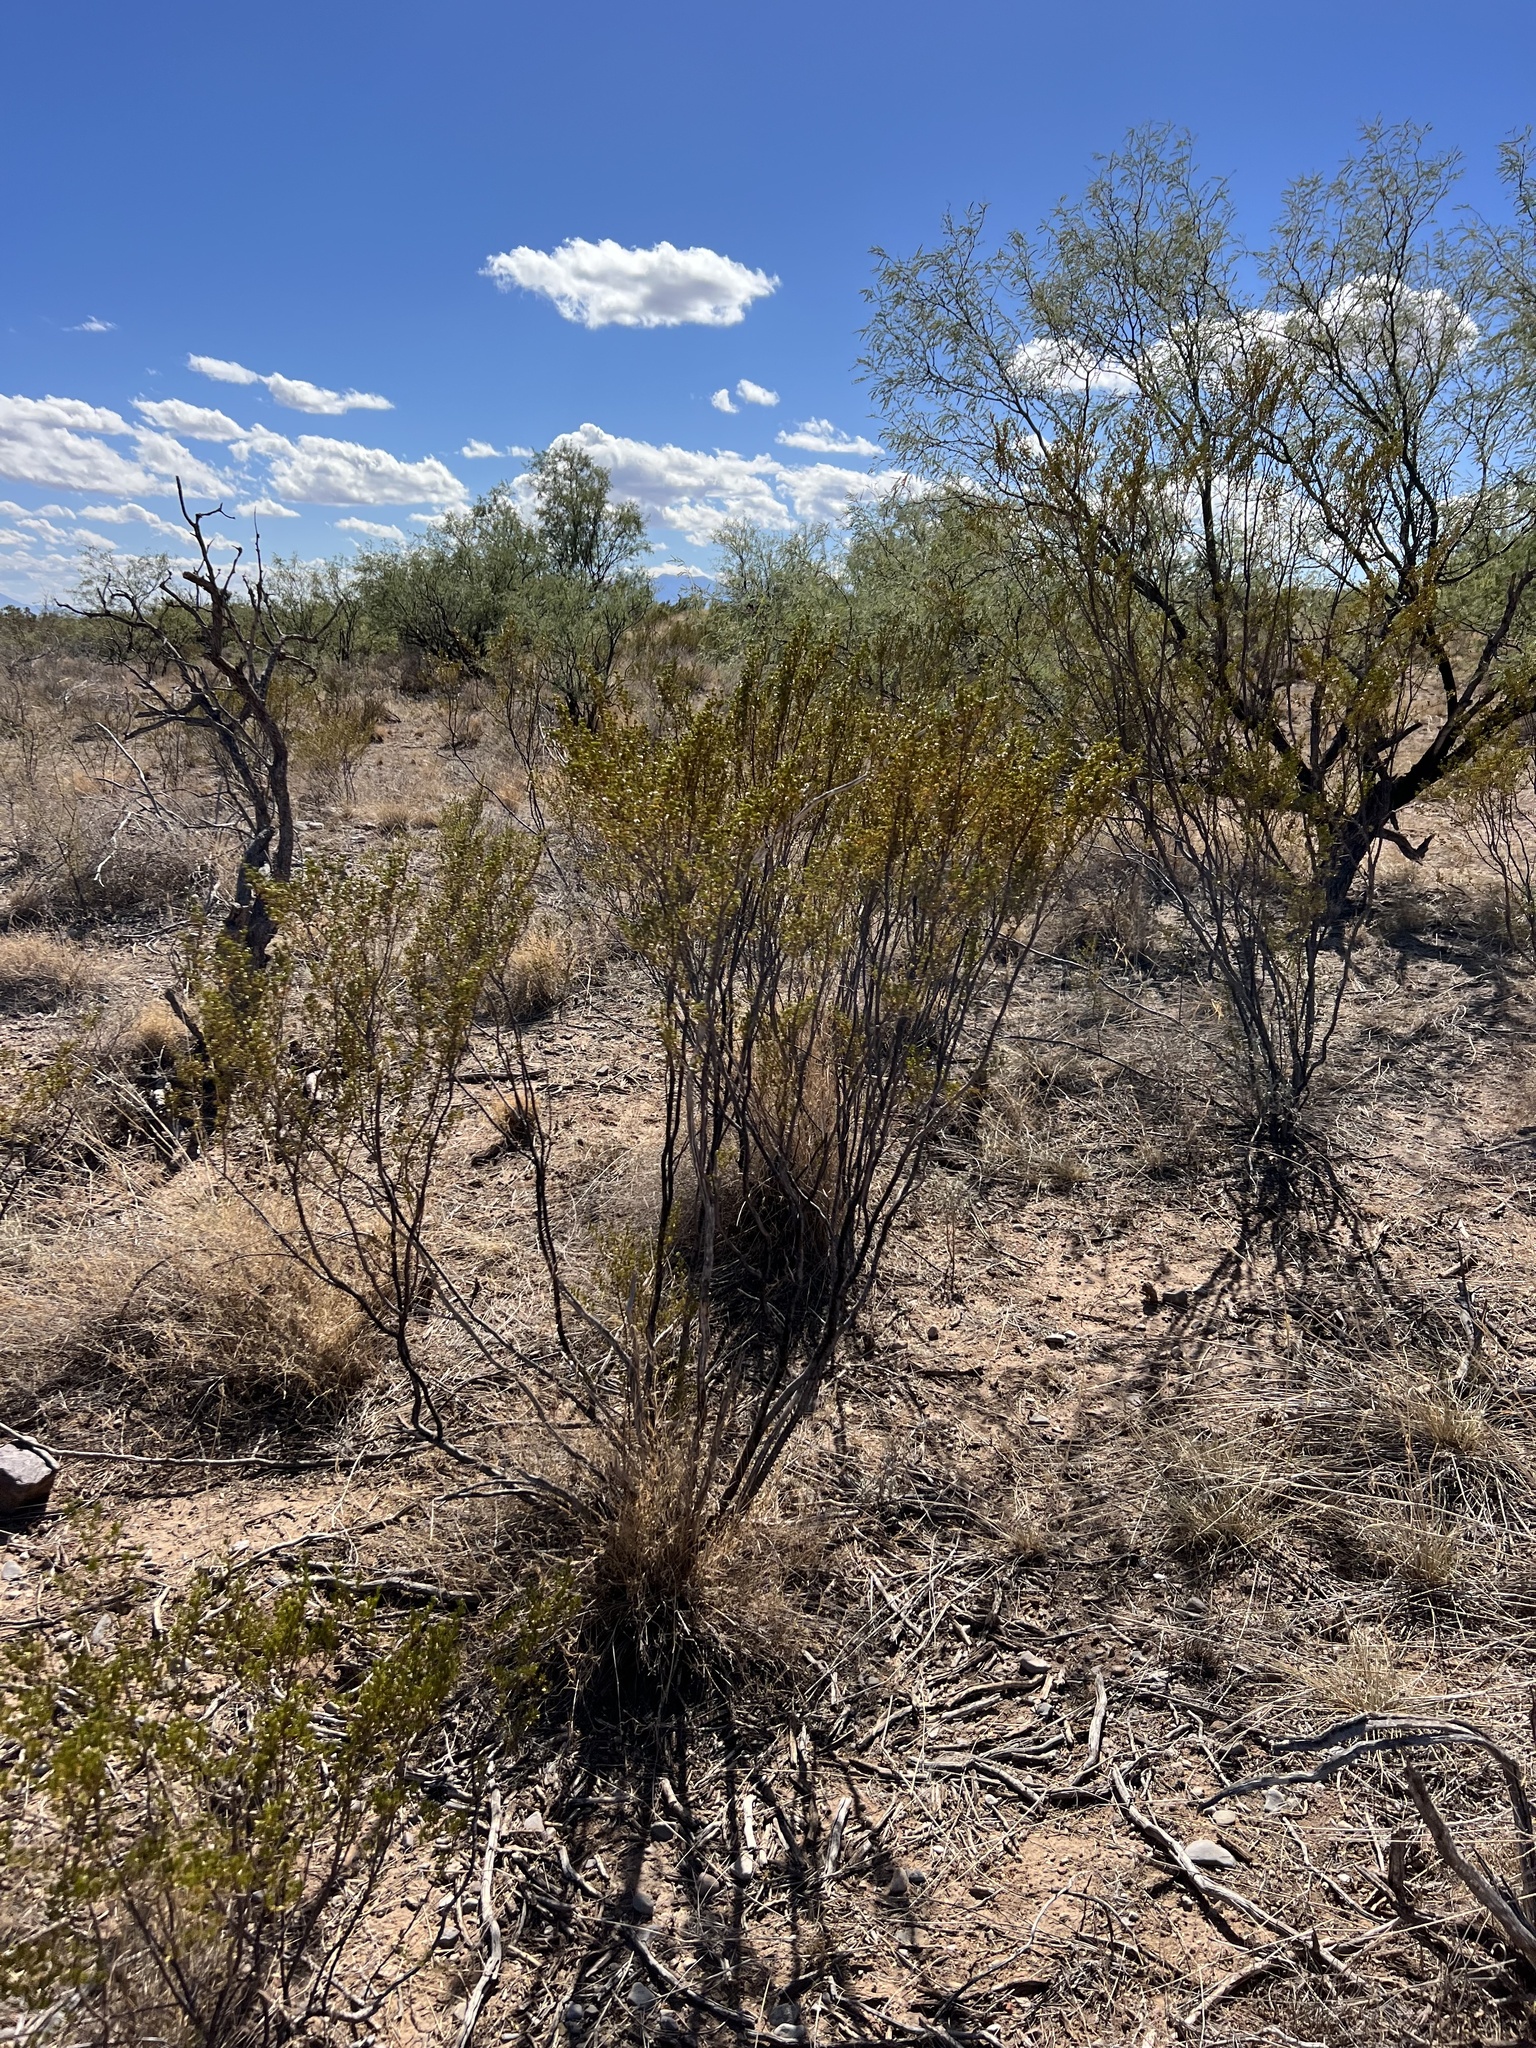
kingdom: Plantae
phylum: Tracheophyta
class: Magnoliopsida
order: Zygophyllales
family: Zygophyllaceae
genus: Larrea
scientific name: Larrea tridentata
